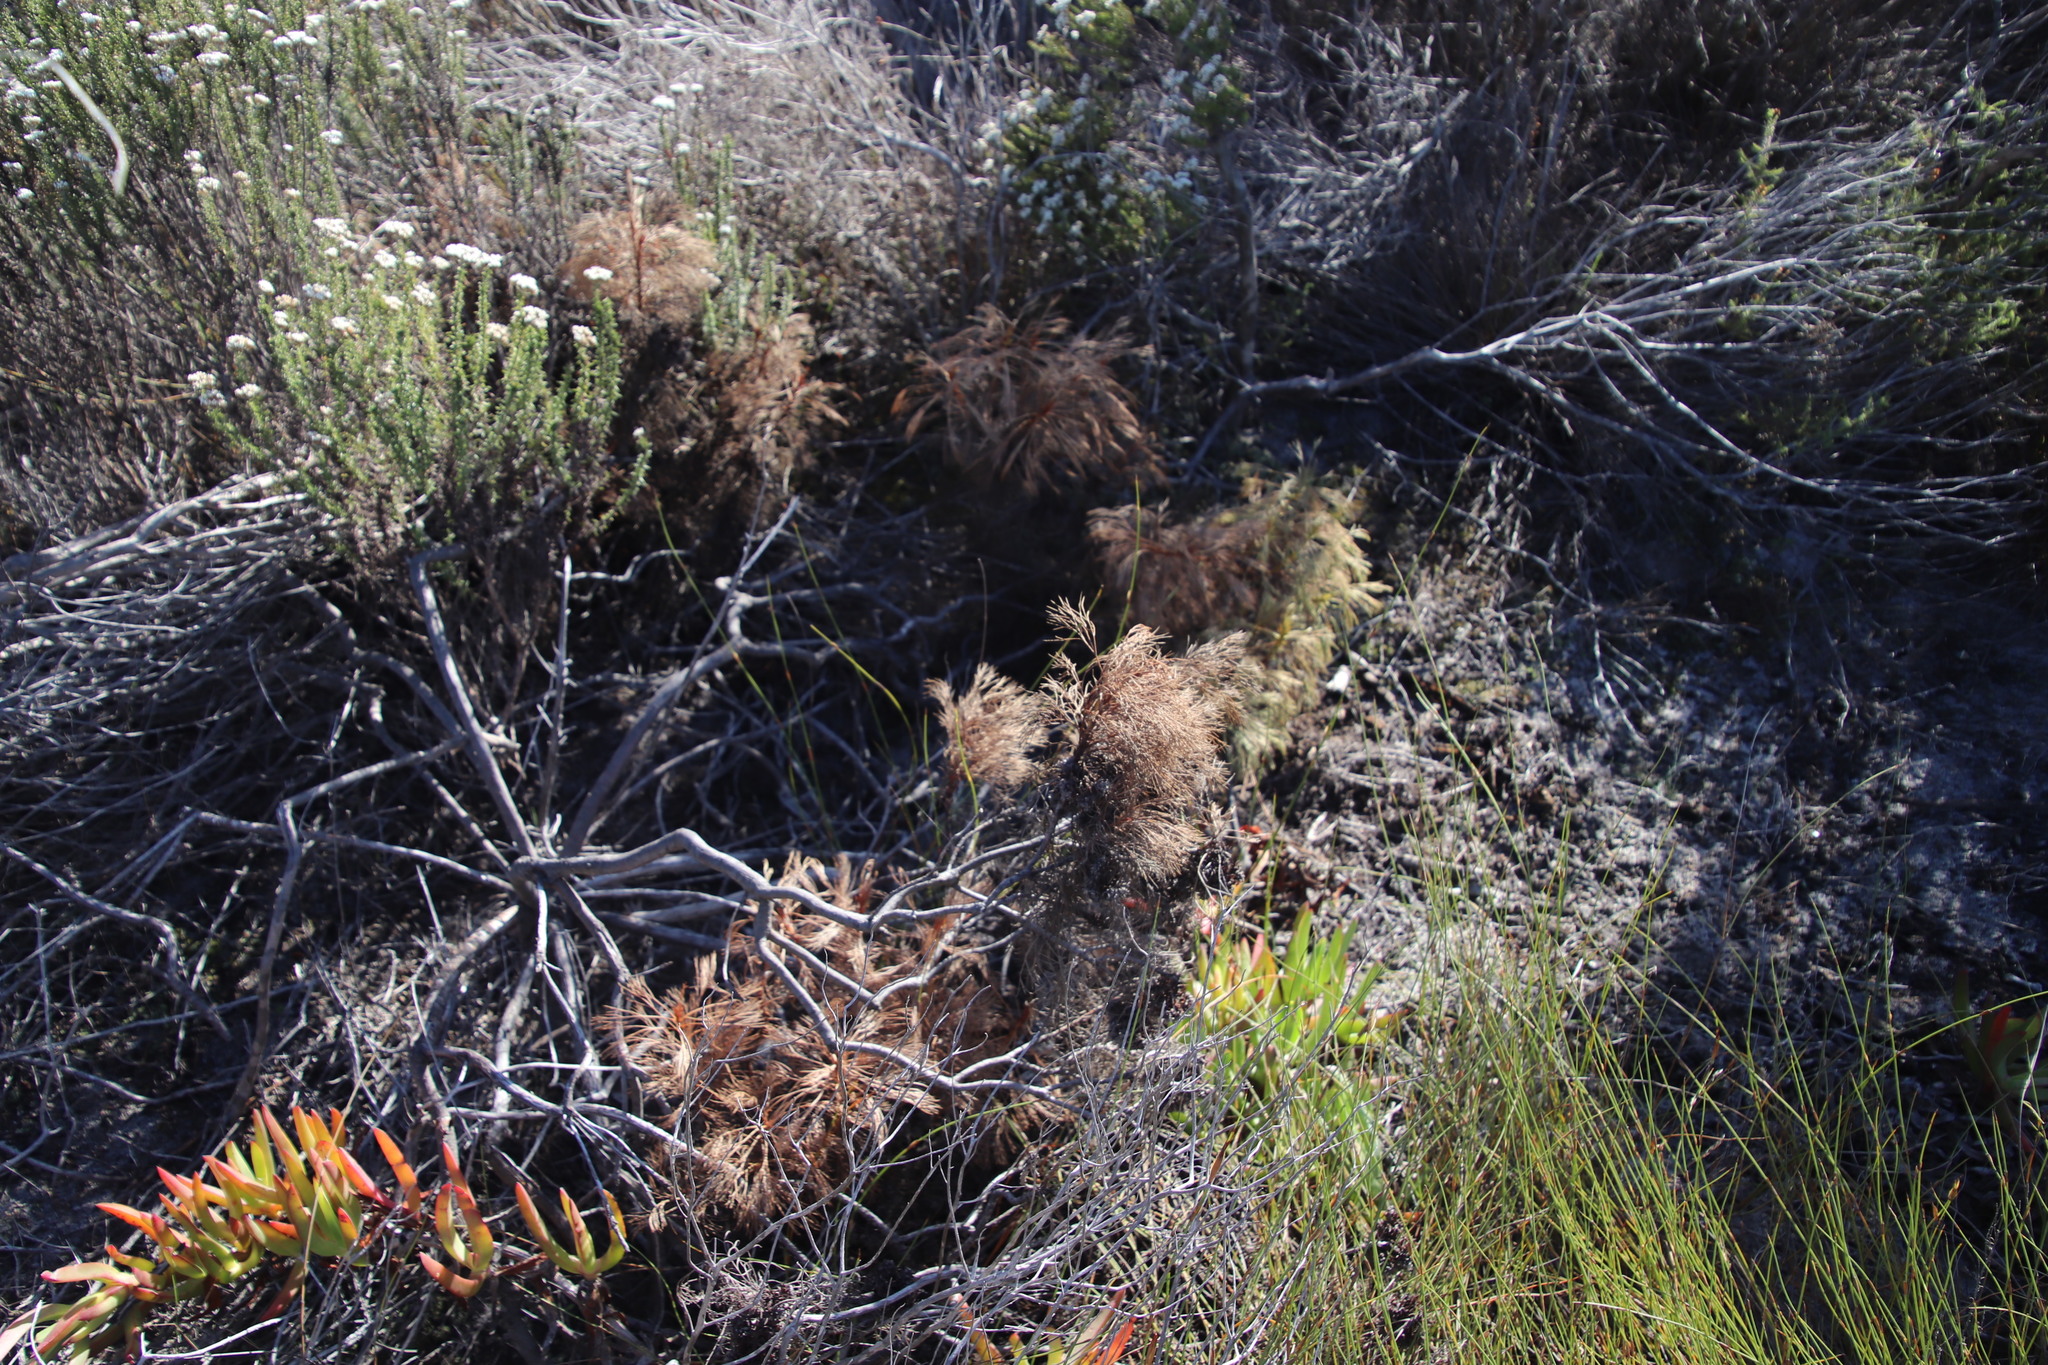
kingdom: Plantae
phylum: Tracheophyta
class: Magnoliopsida
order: Proteales
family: Proteaceae
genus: Serruria
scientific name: Serruria glomerata
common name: Cluster spiderhead
